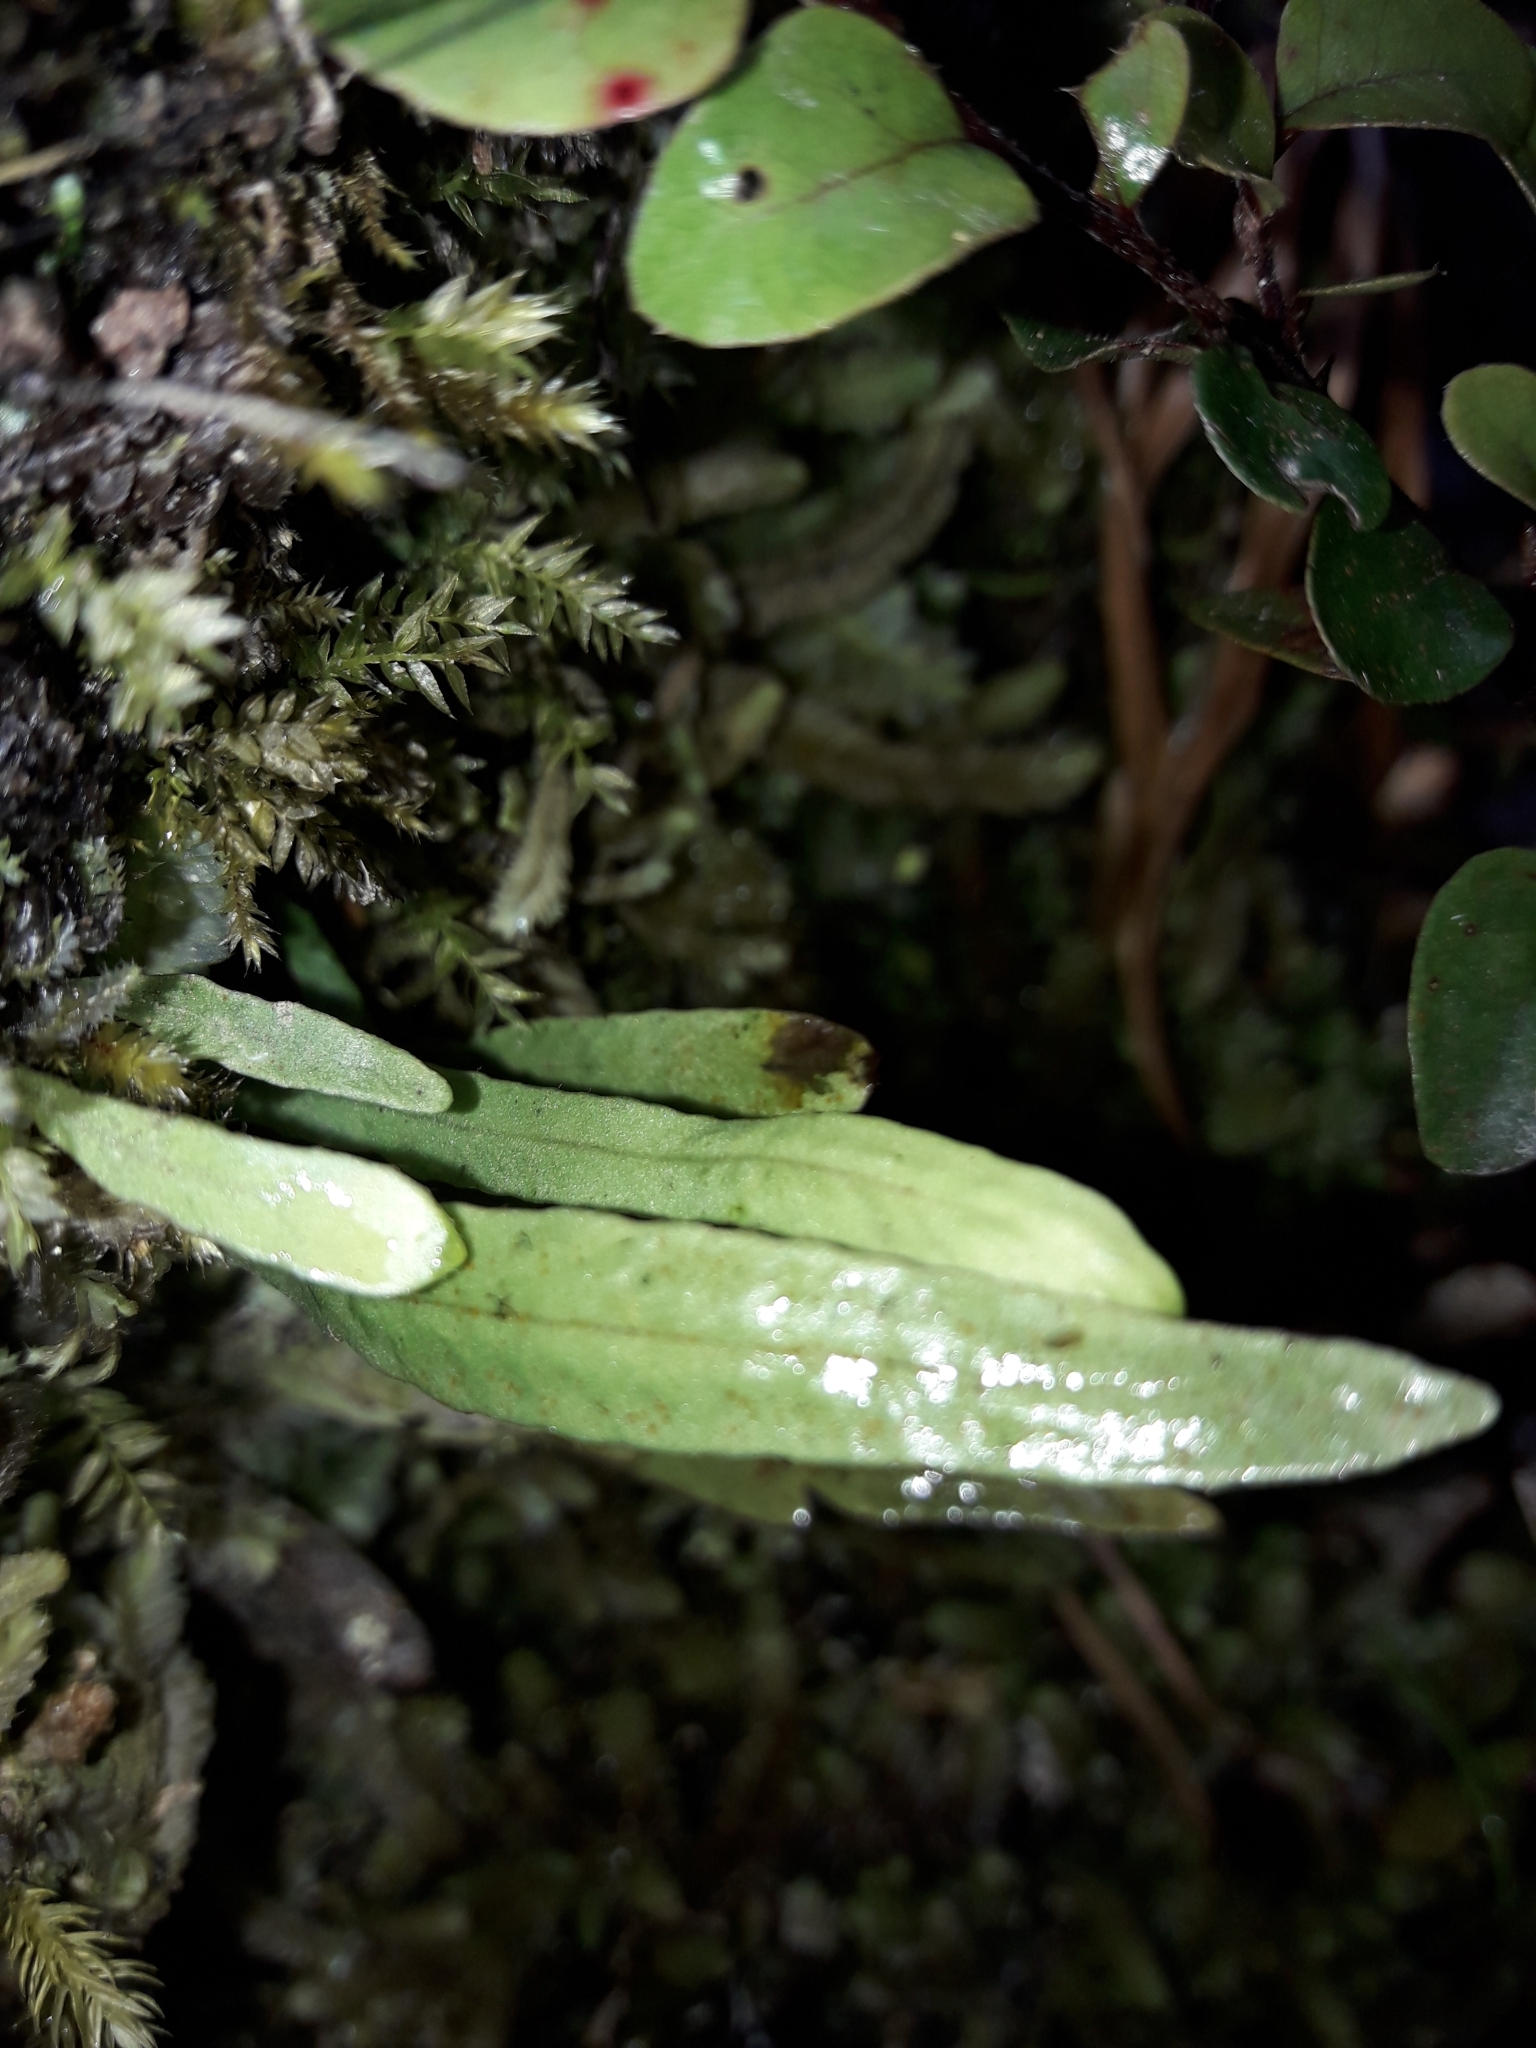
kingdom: Plantae
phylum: Tracheophyta
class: Polypodiopsida
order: Polypodiales
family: Polypodiaceae
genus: Notogrammitis
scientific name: Notogrammitis billardierei
